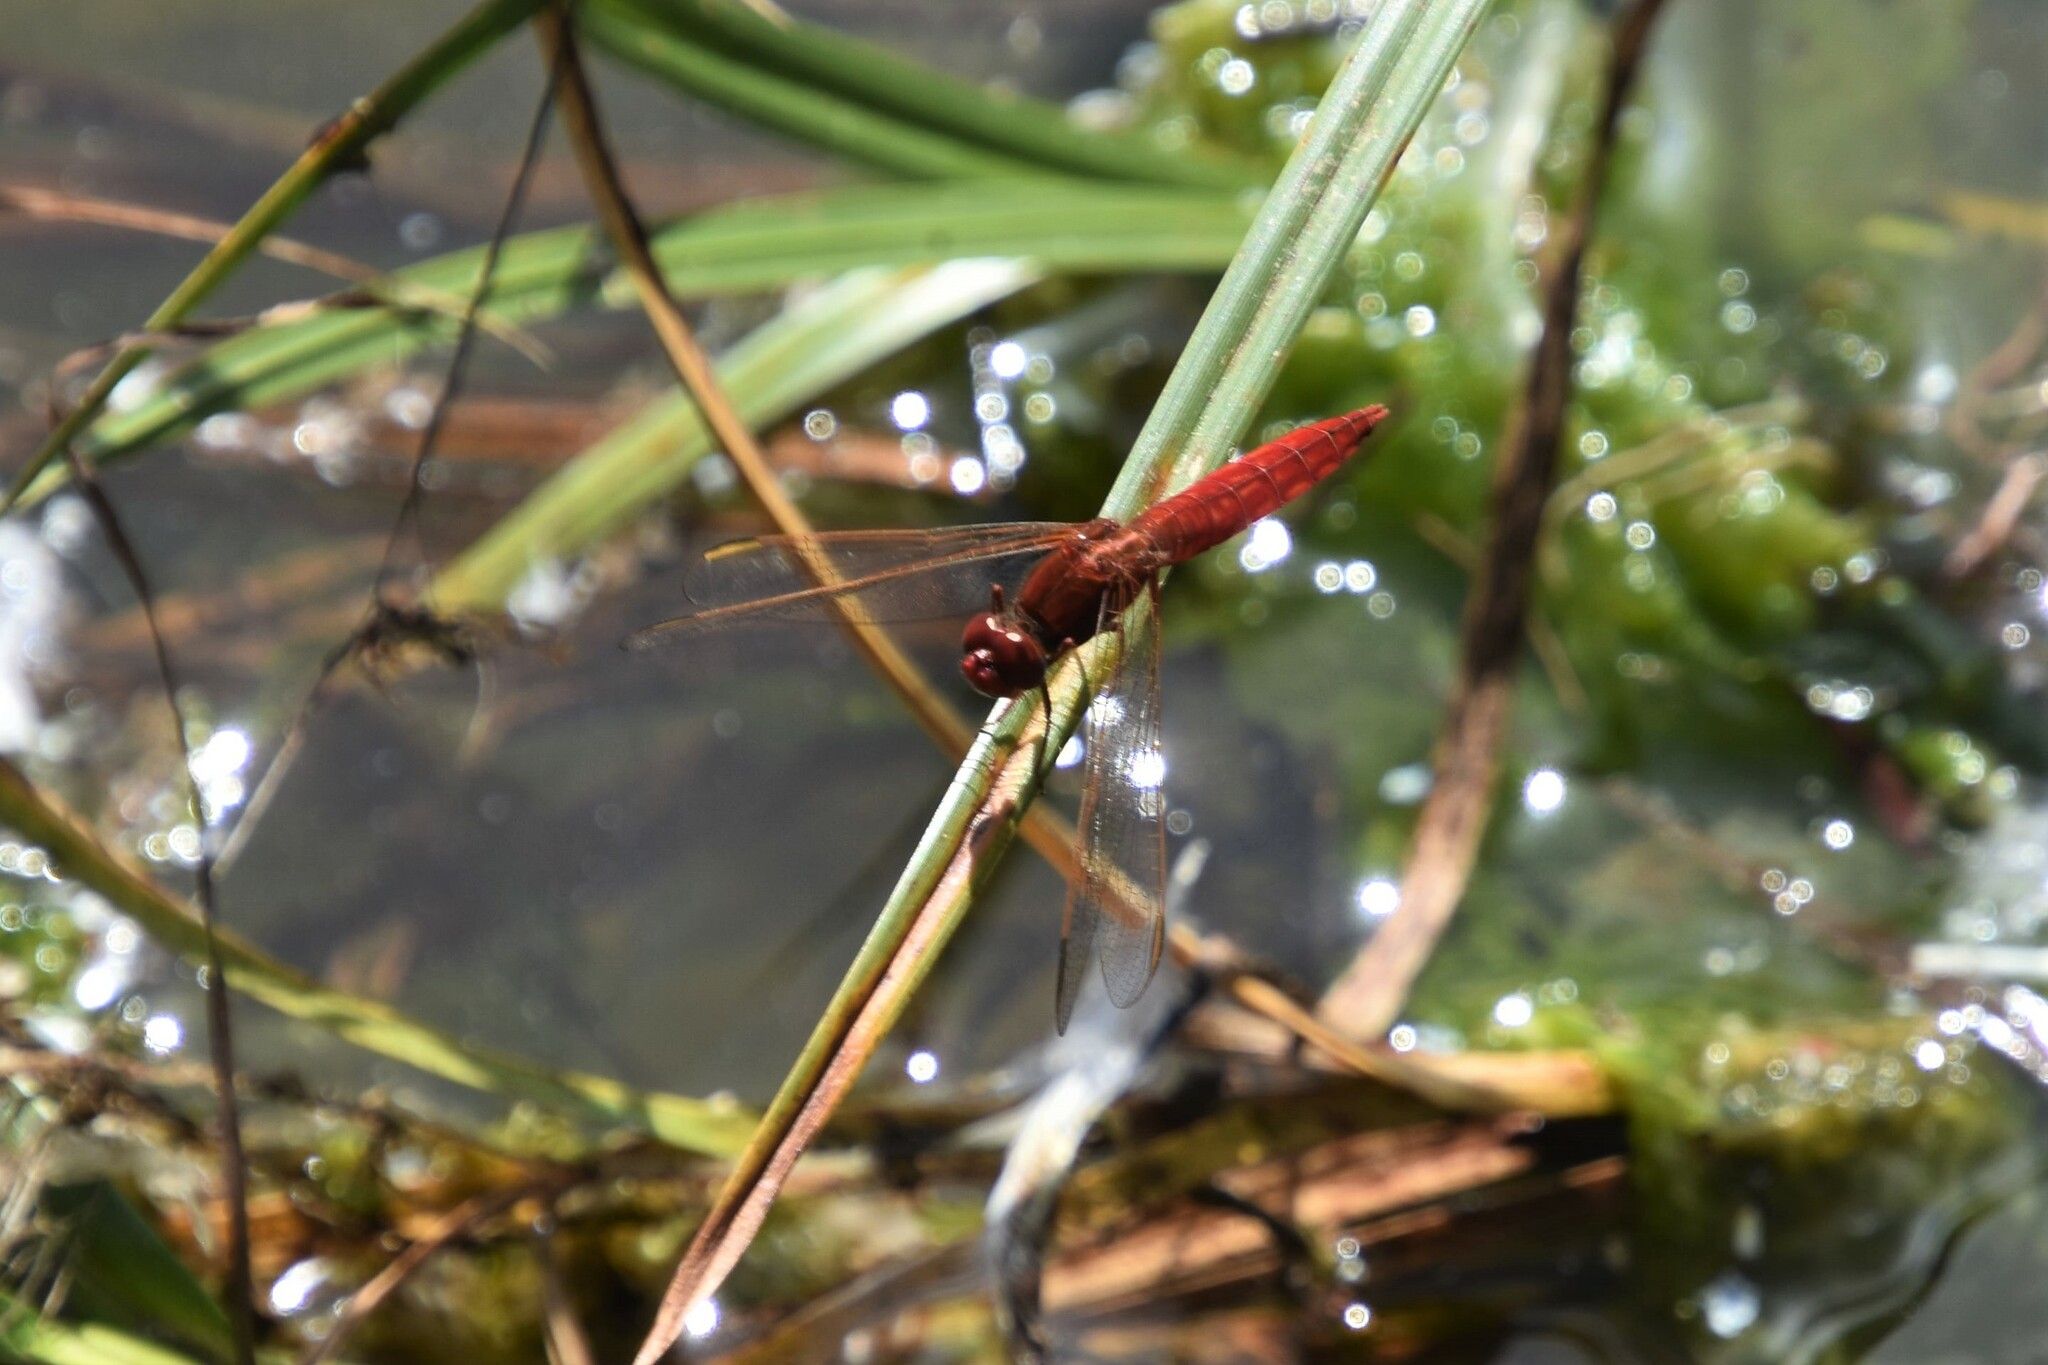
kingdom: Animalia
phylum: Arthropoda
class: Insecta
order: Odonata
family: Libellulidae
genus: Crocothemis
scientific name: Crocothemis erythraea
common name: Scarlet dragonfly
